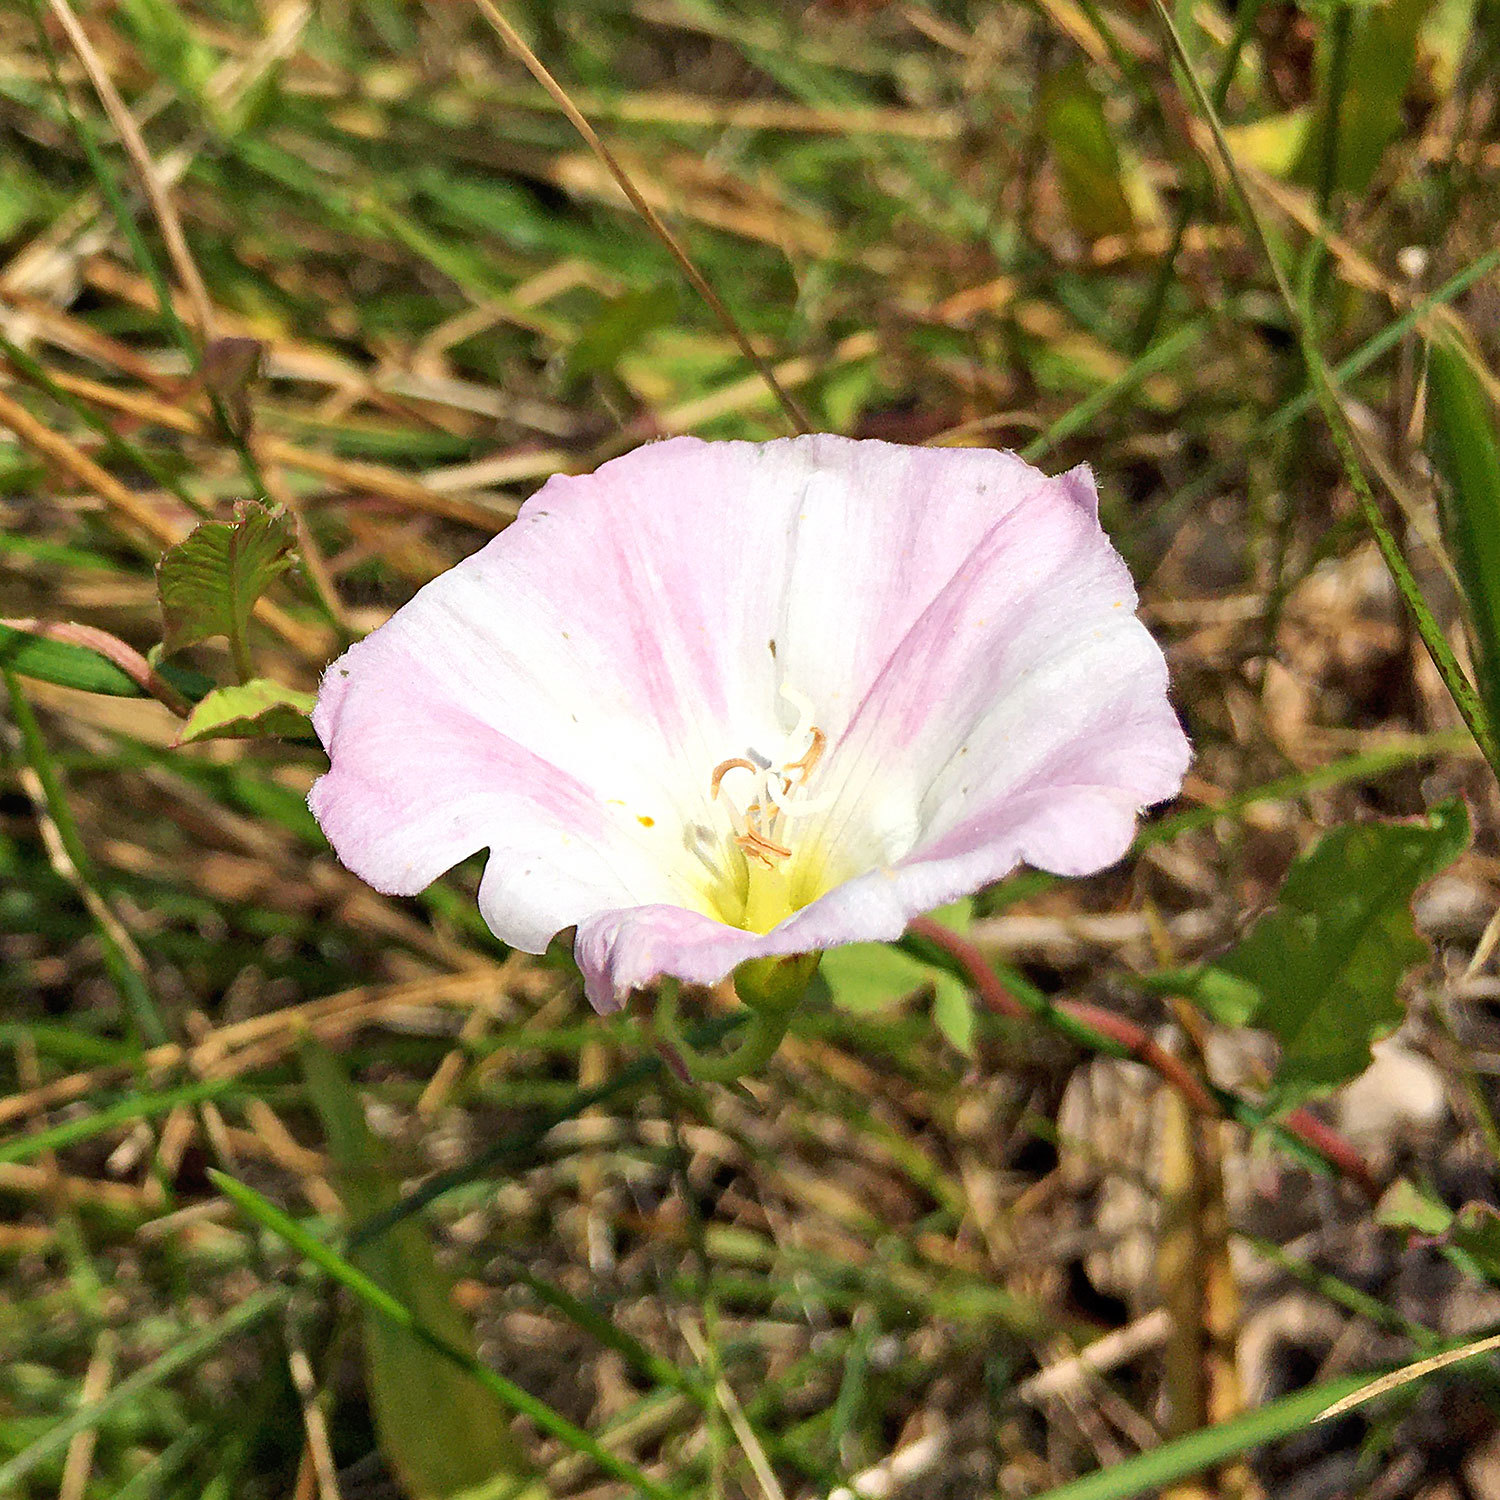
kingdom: Plantae
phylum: Tracheophyta
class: Magnoliopsida
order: Solanales
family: Convolvulaceae
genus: Convolvulus
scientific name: Convolvulus arvensis
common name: Field bindweed
